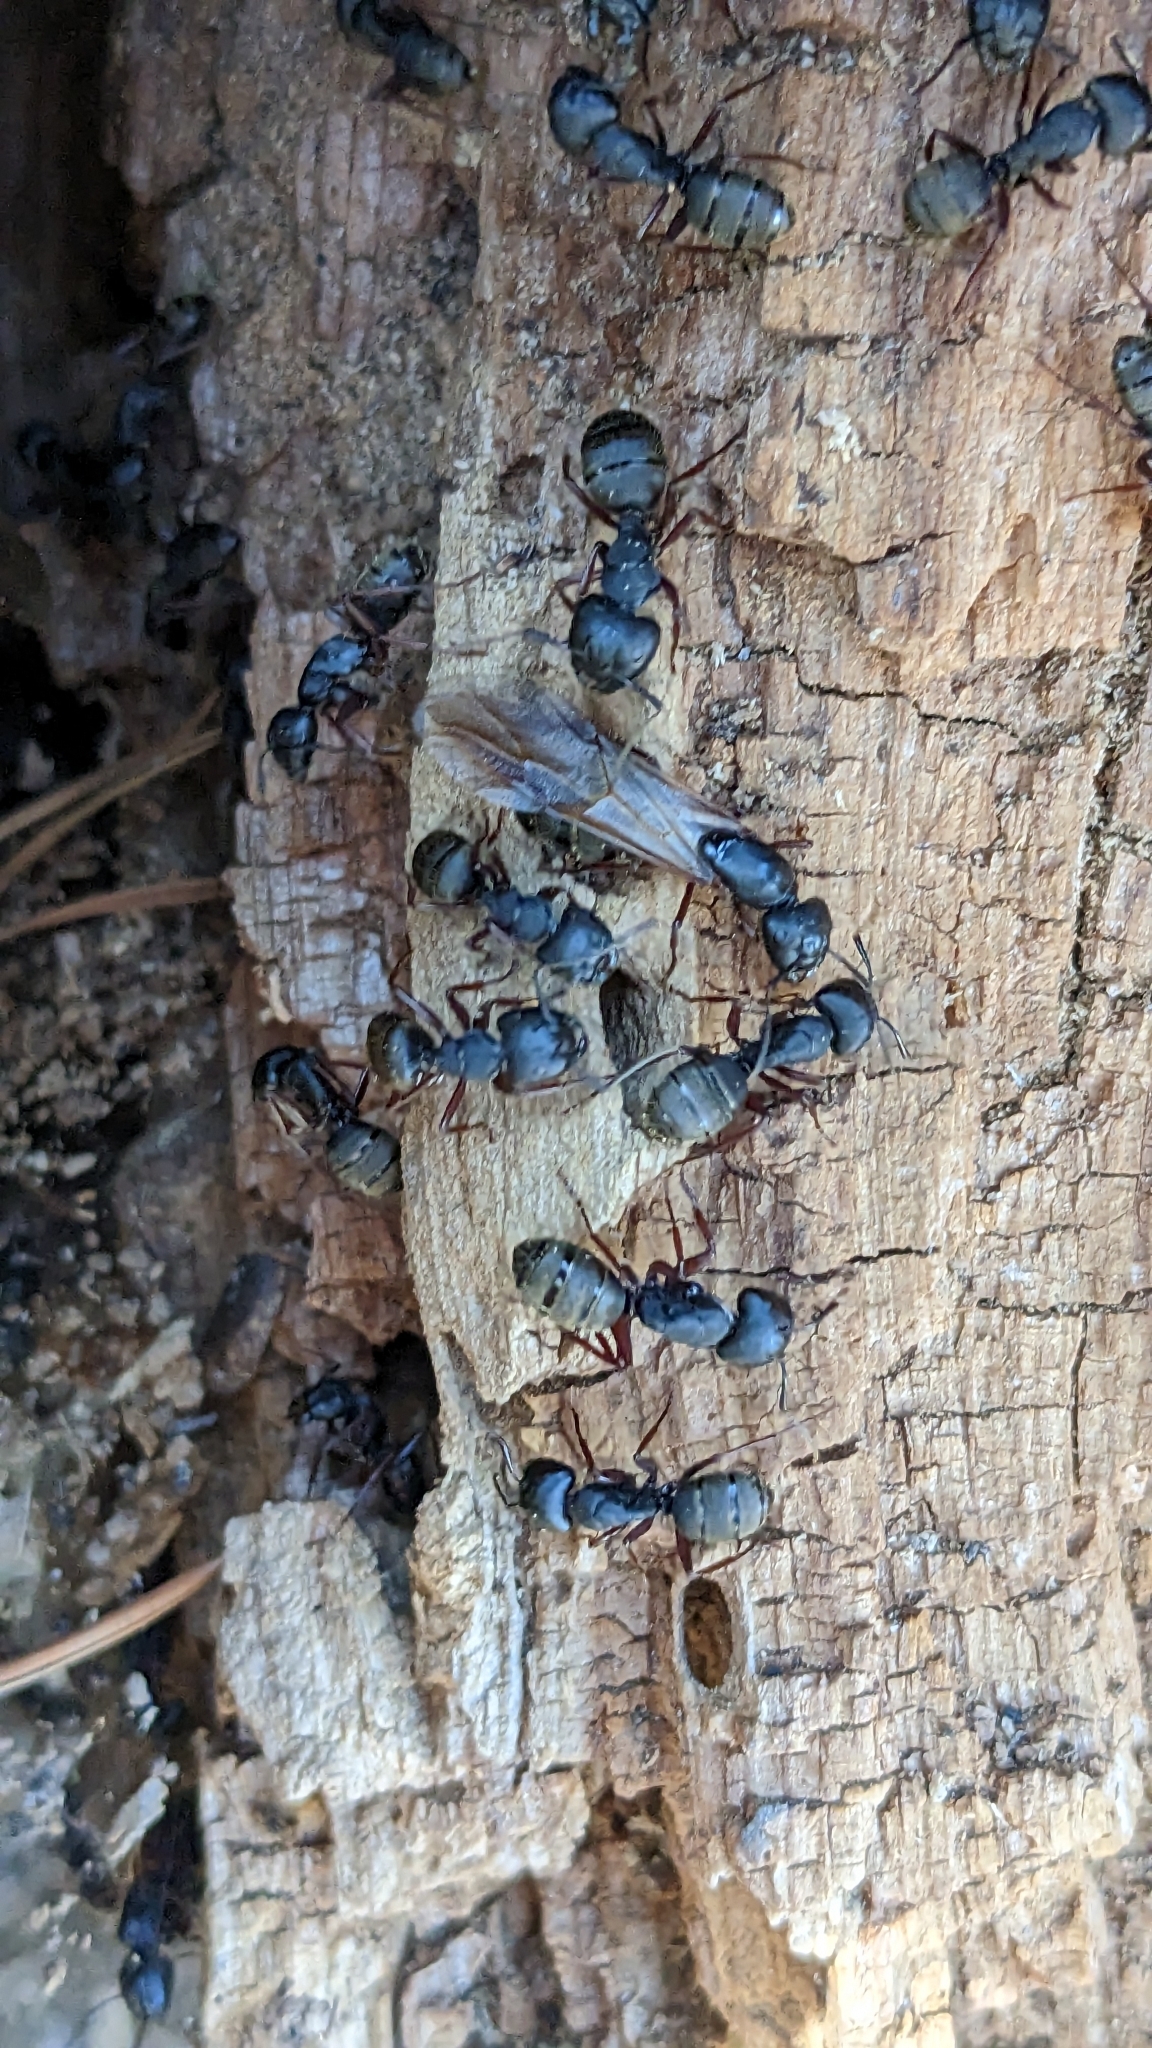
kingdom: Animalia
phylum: Arthropoda
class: Insecta
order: Hymenoptera
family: Formicidae
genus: Camponotus
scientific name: Camponotus modoc
